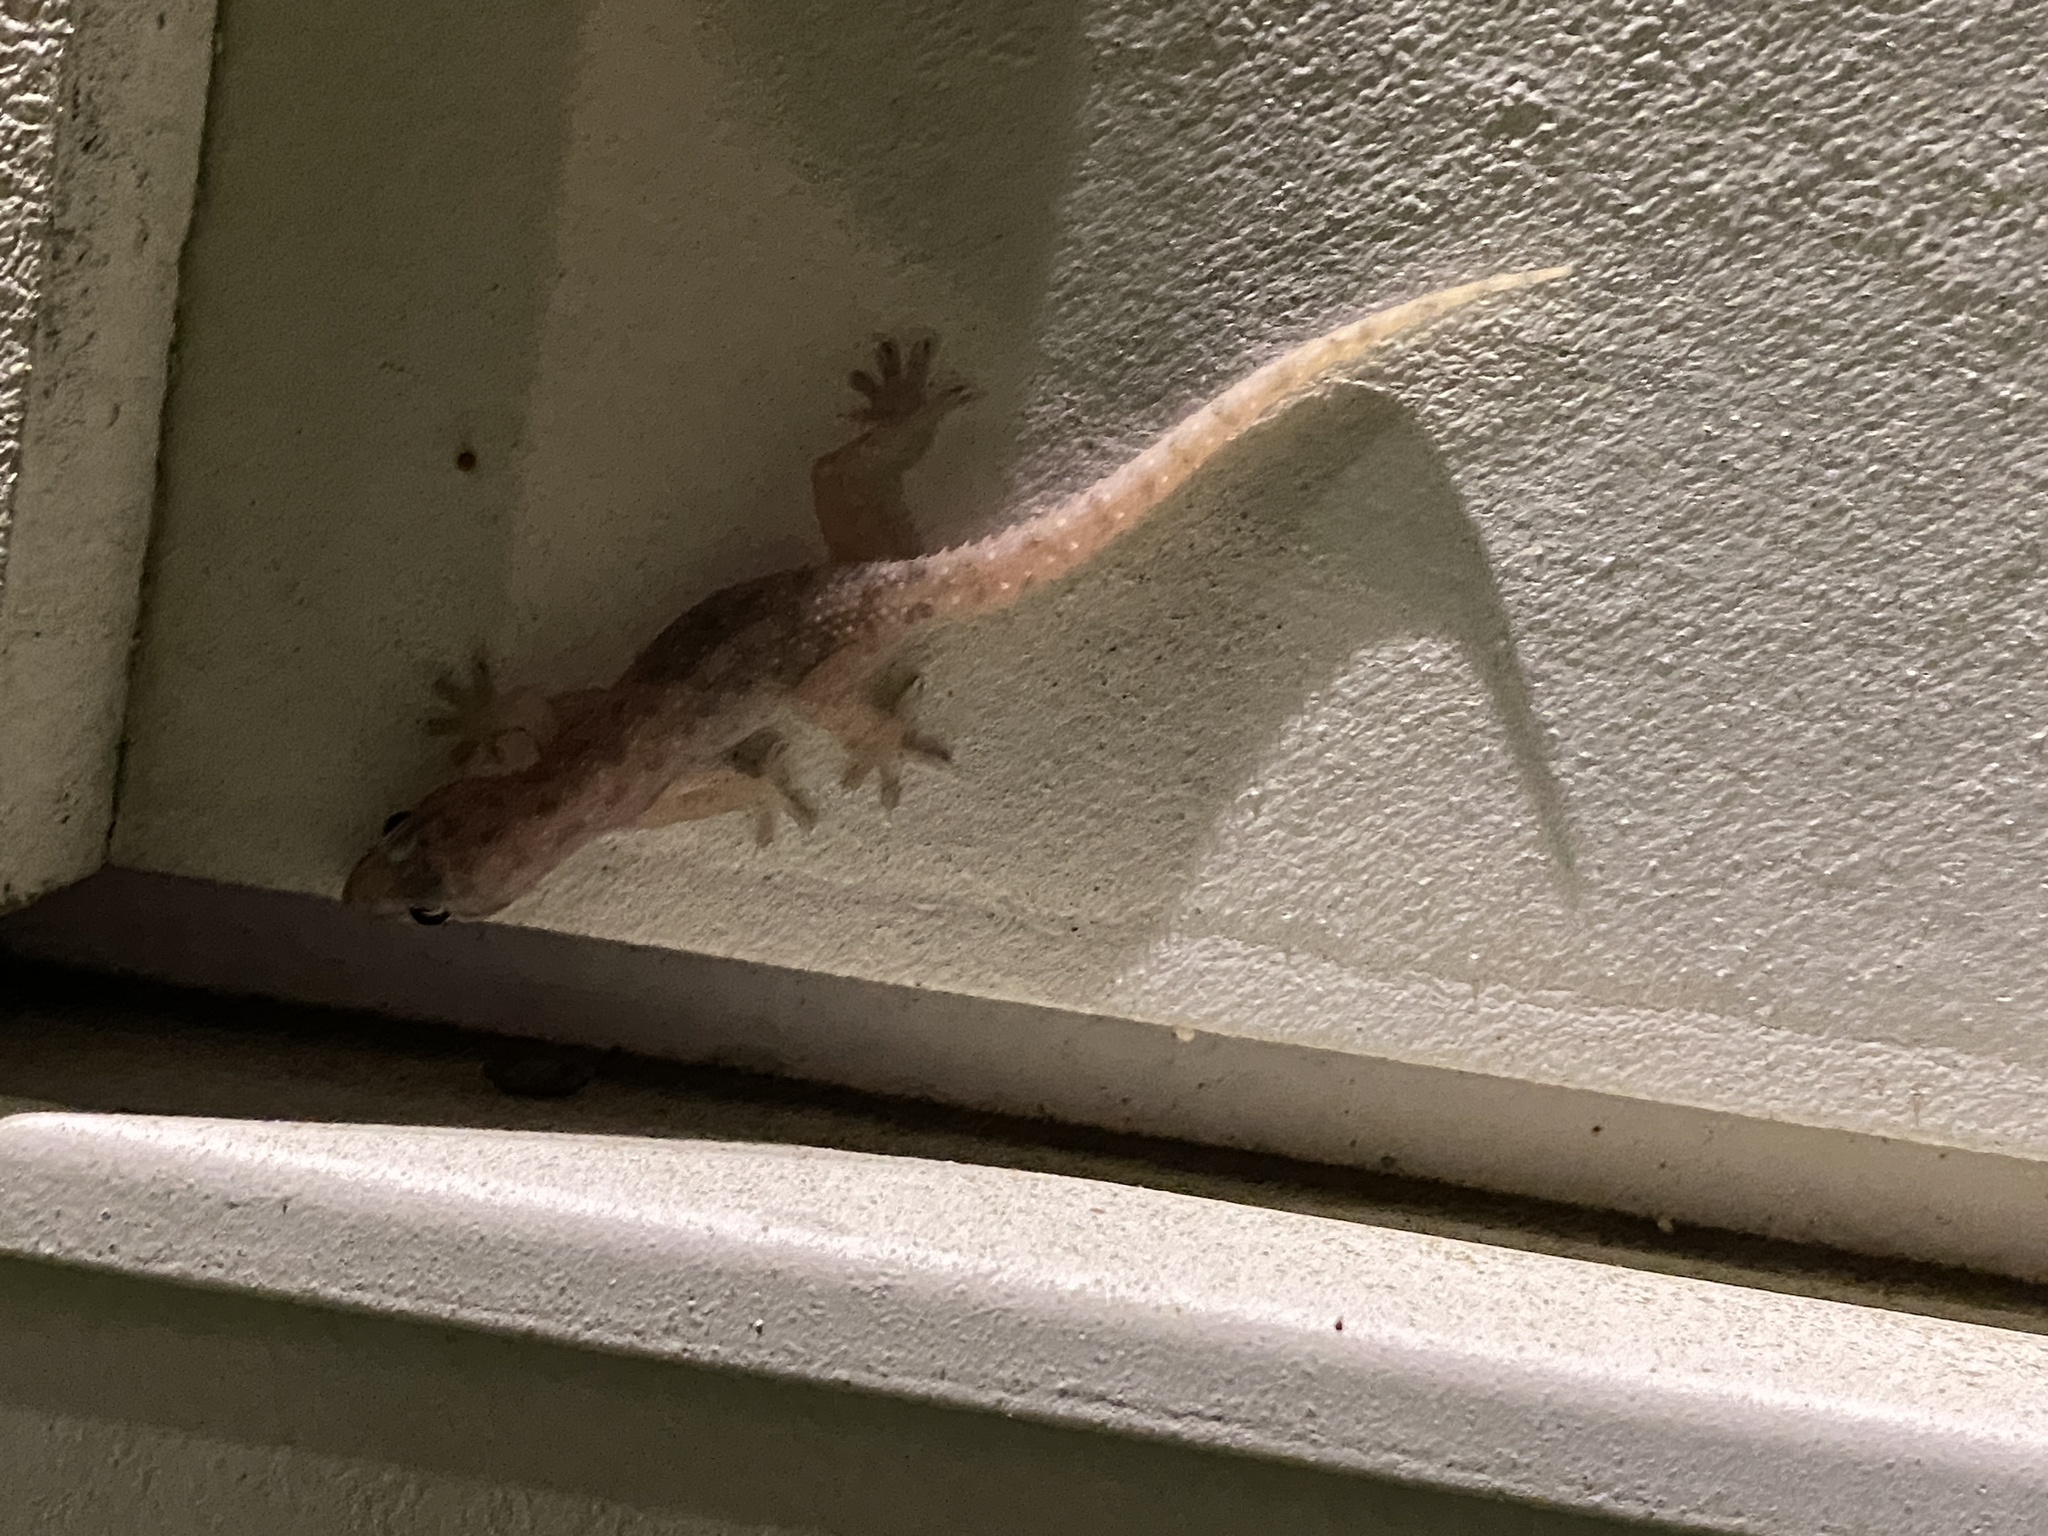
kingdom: Animalia
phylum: Chordata
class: Squamata
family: Gekkonidae
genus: Hemidactylus
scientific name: Hemidactylus parvimaculatus
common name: Spotted house gecko
